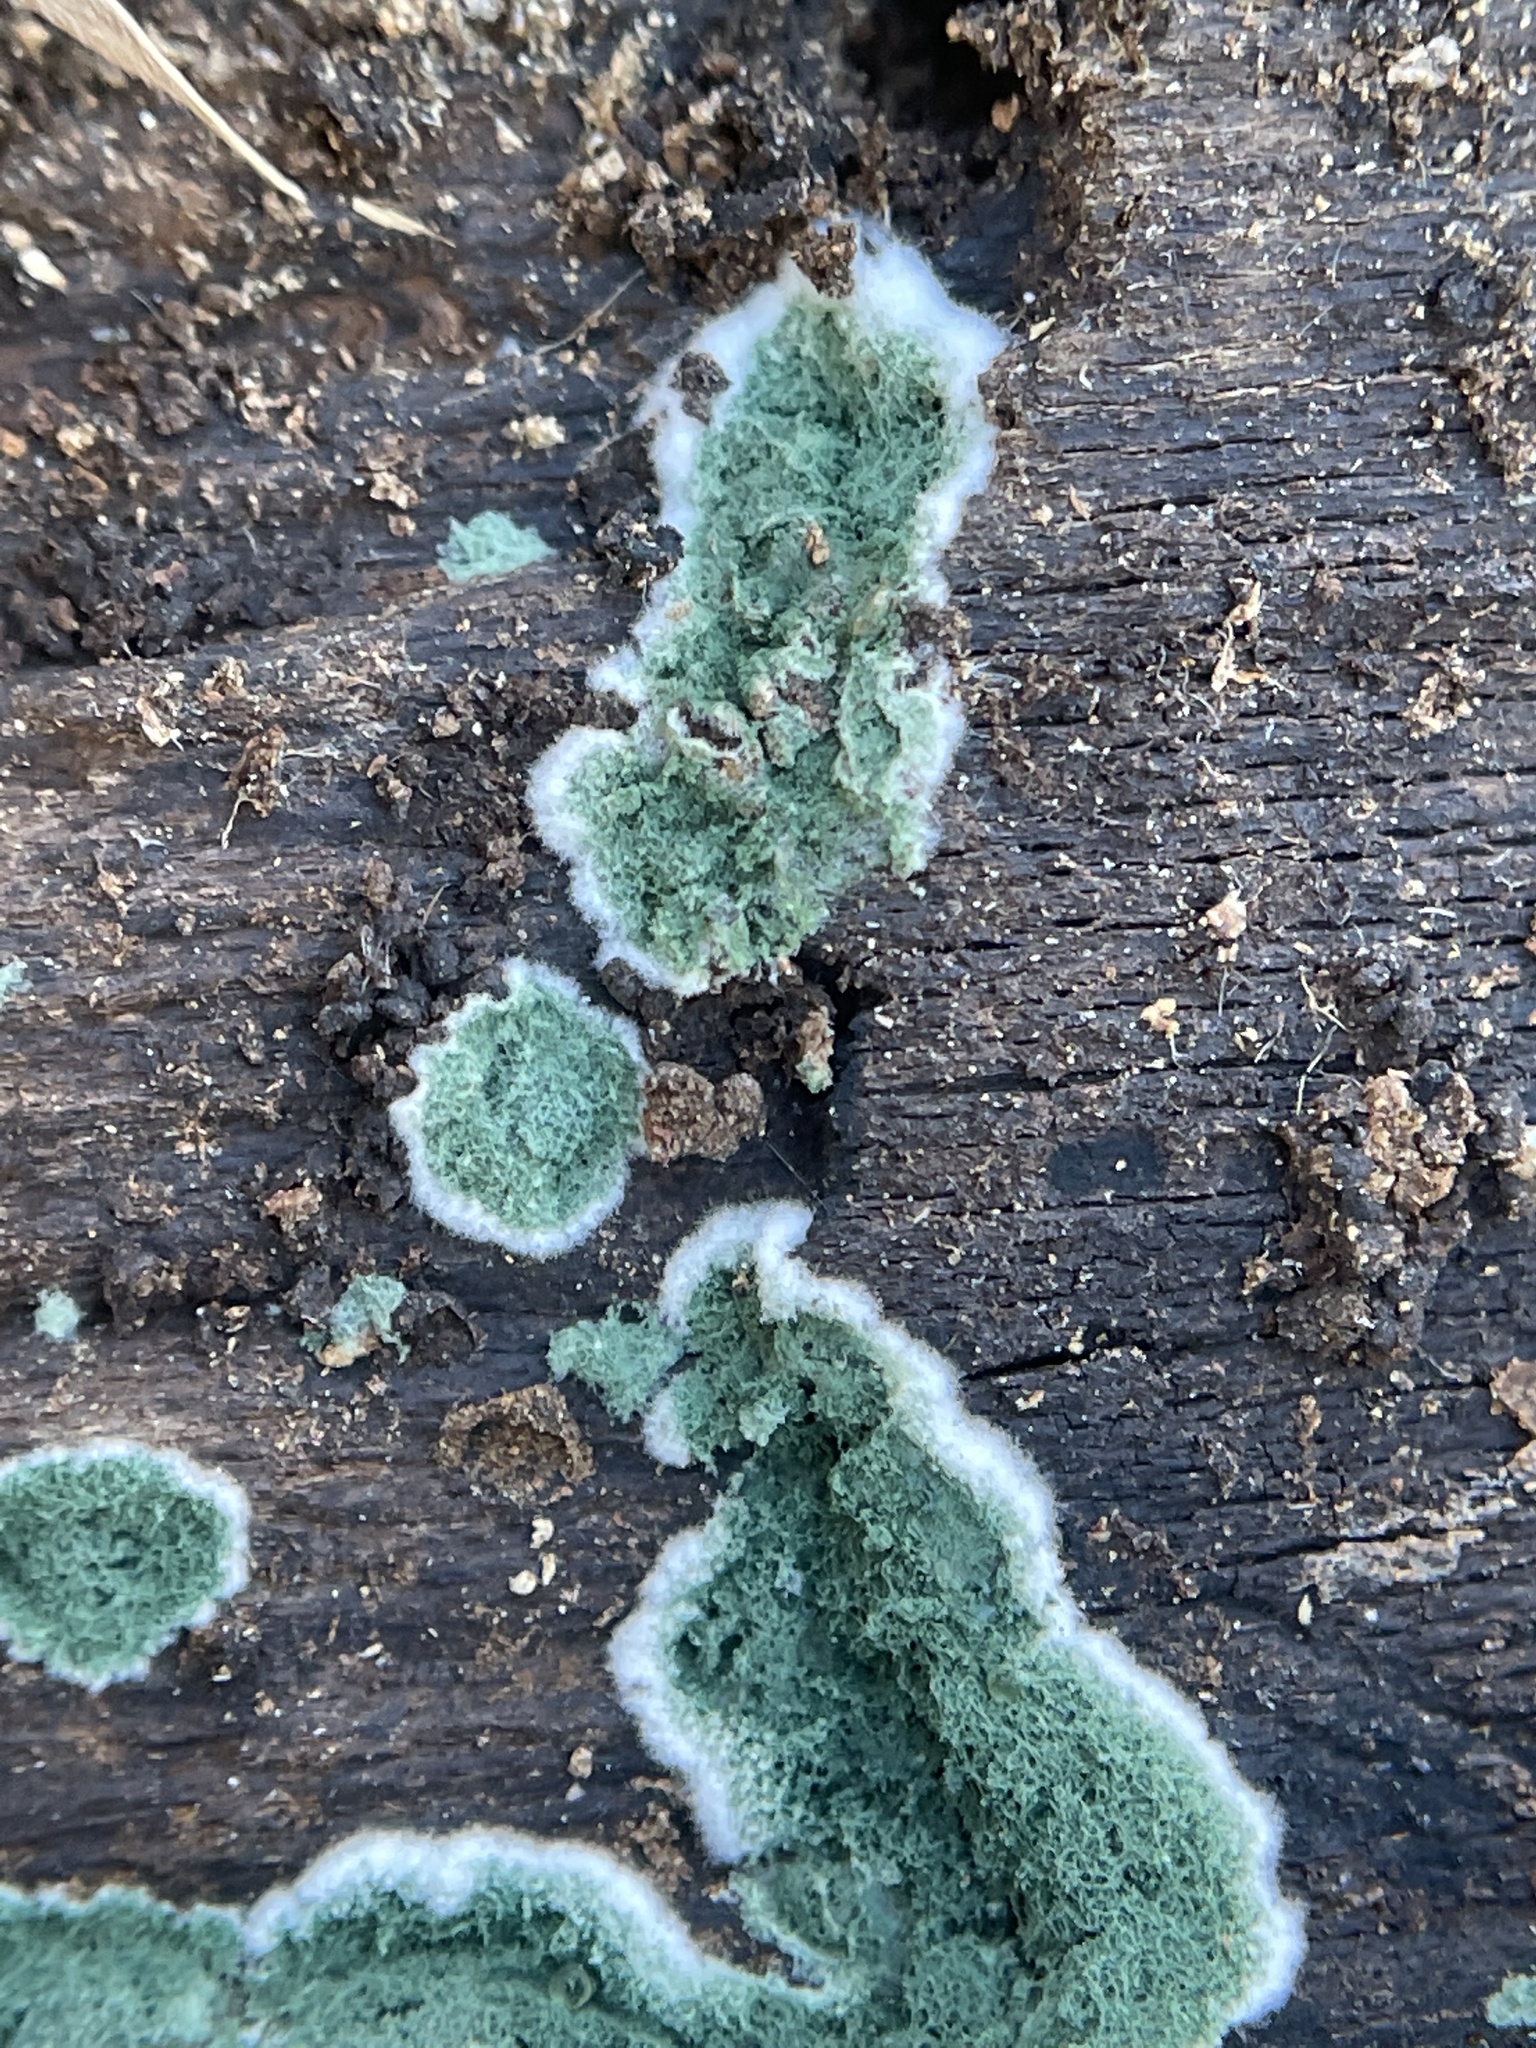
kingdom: Fungi
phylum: Ascomycota
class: Sordariomycetes
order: Hypocreales
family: Hypocreaceae
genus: Trichoderma
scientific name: Trichoderma viride
